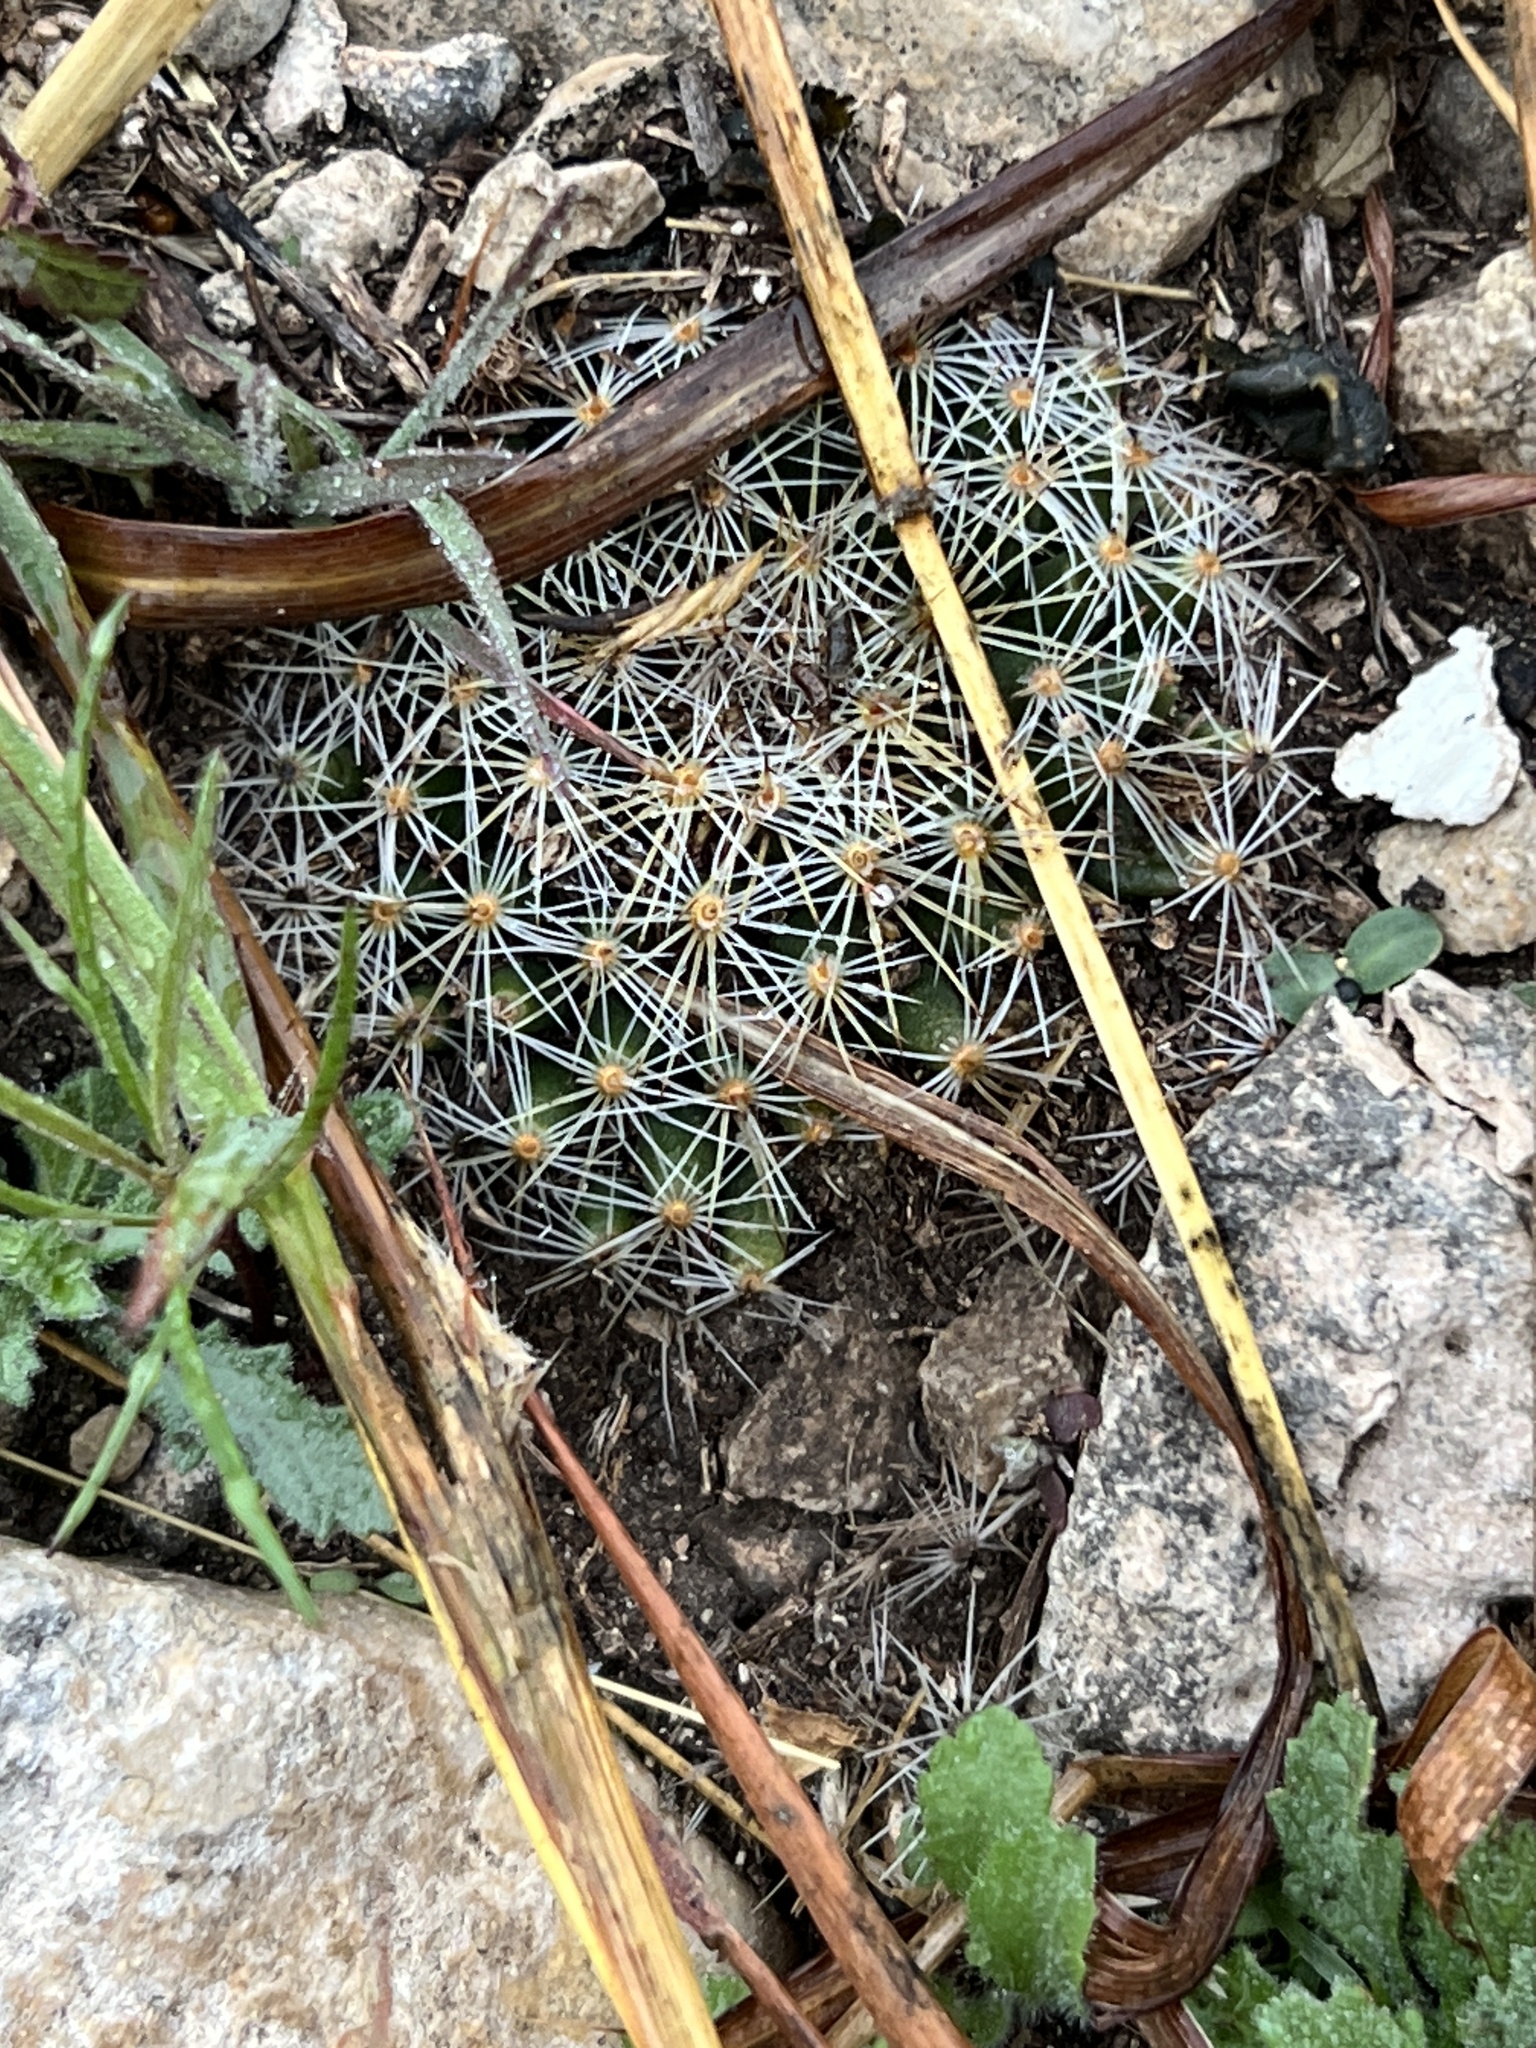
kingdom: Plantae
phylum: Tracheophyta
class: Magnoliopsida
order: Caryophyllales
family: Cactaceae
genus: Mammillaria
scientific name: Mammillaria heyderi
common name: Little nipple cactus
